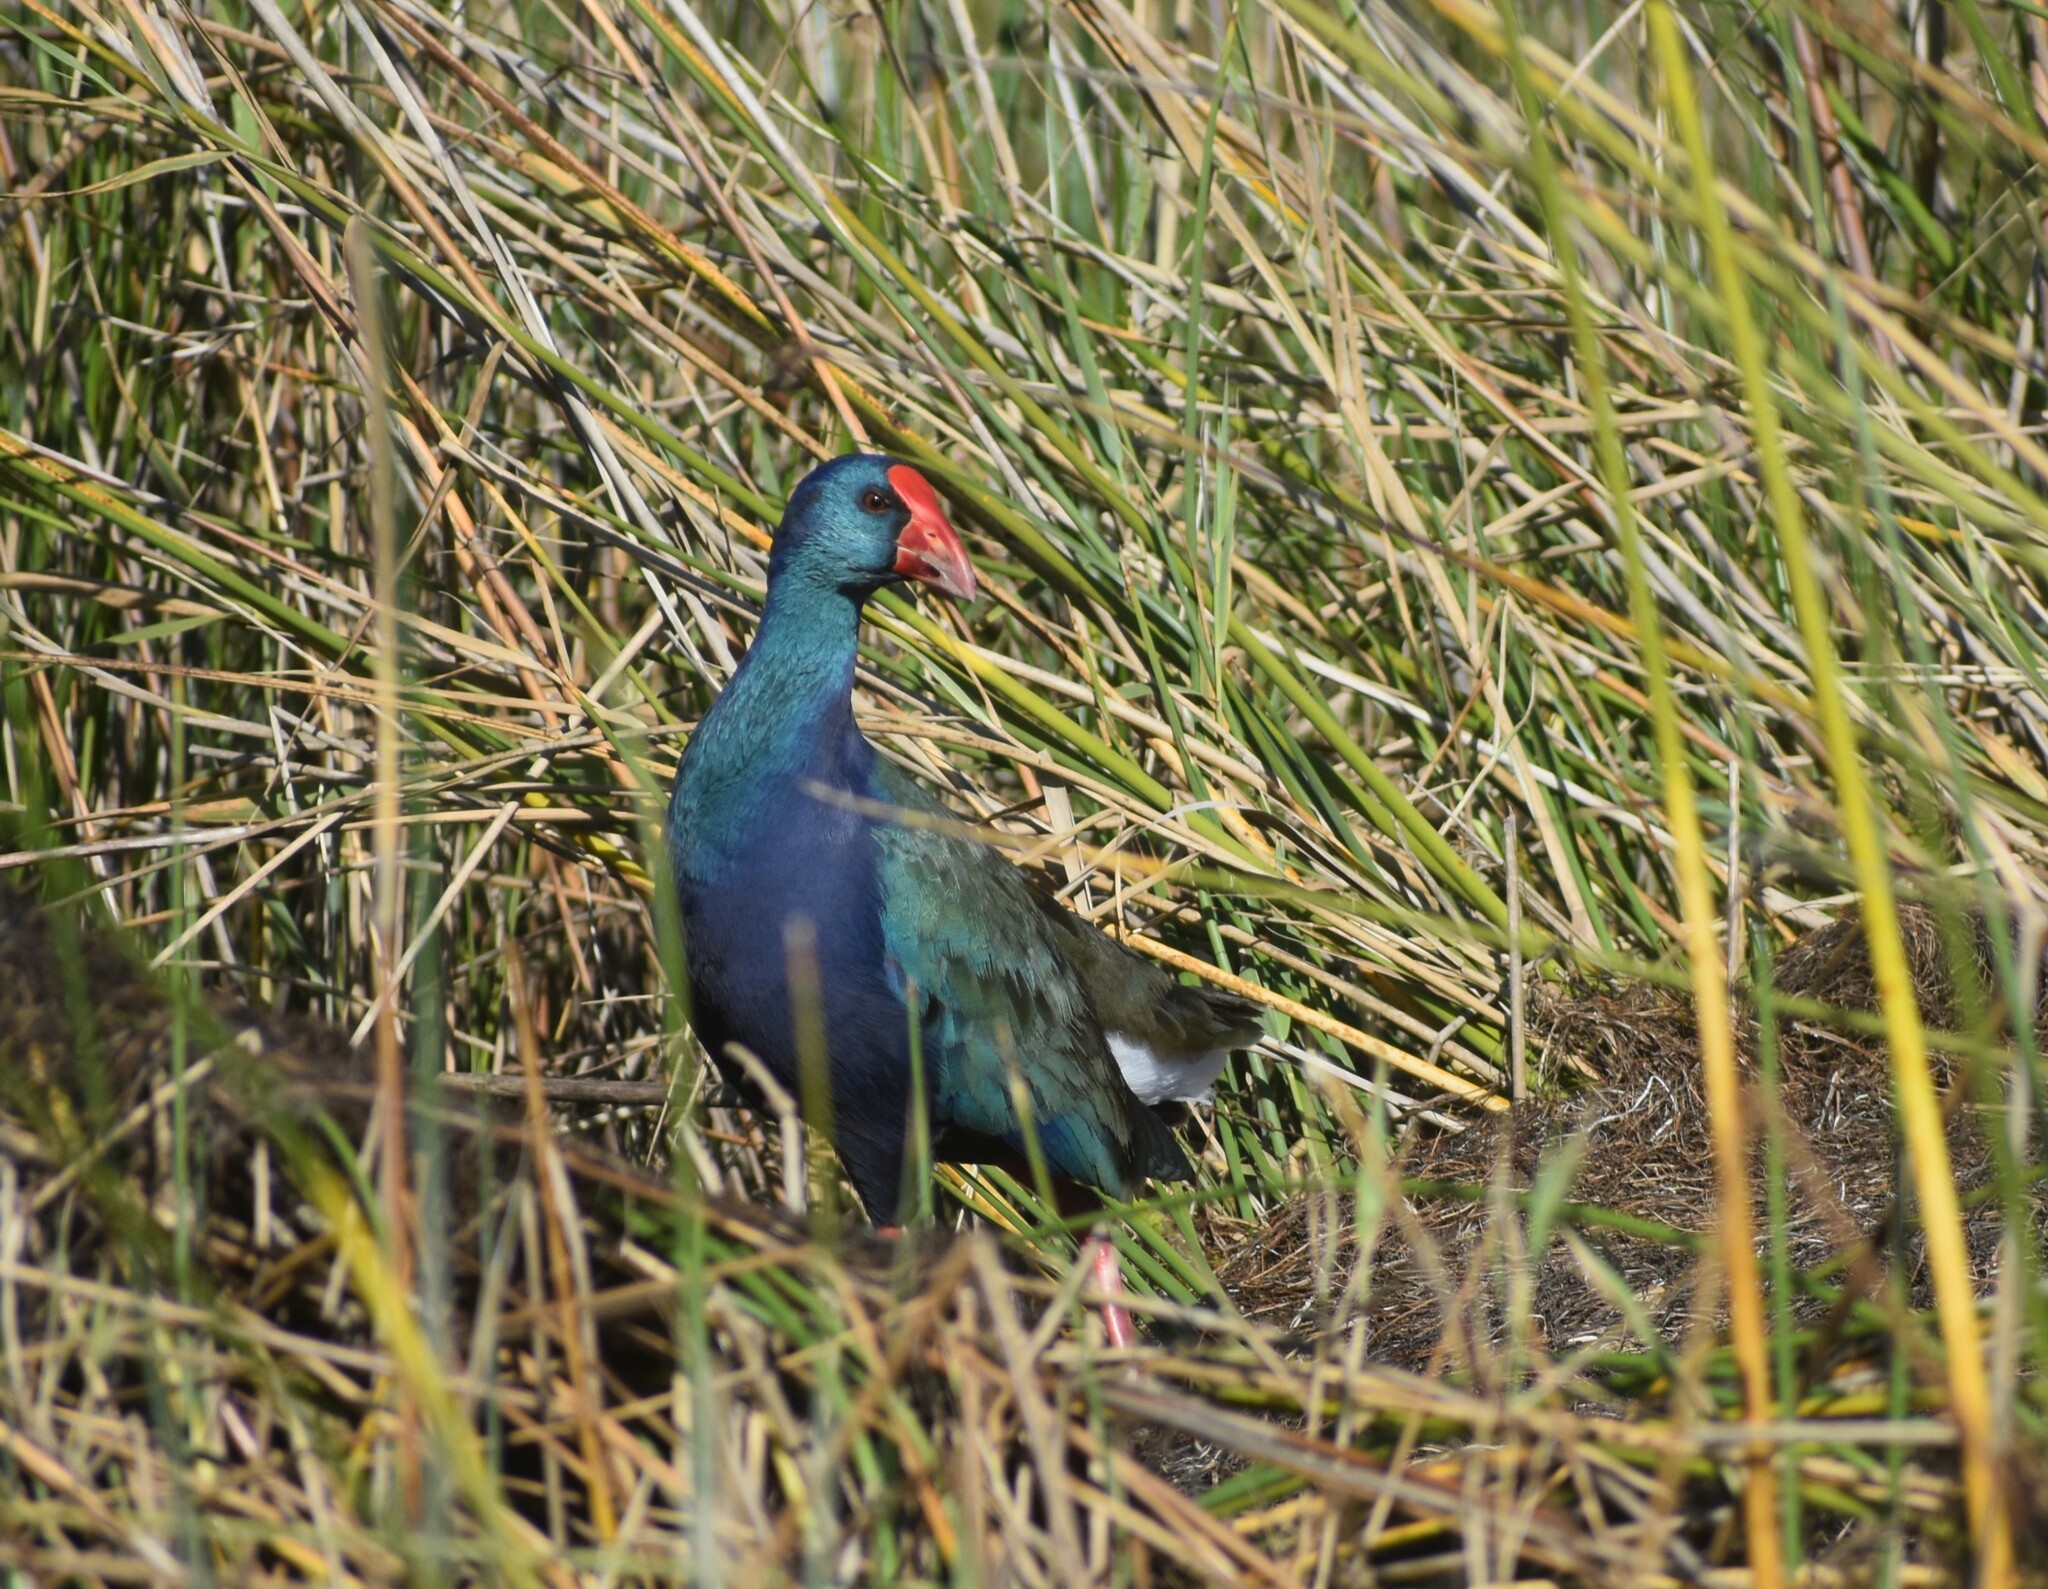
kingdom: Animalia
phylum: Chordata
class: Aves
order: Gruiformes
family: Rallidae
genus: Porphyrio
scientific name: Porphyrio porphyrio
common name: Purple swamphen
